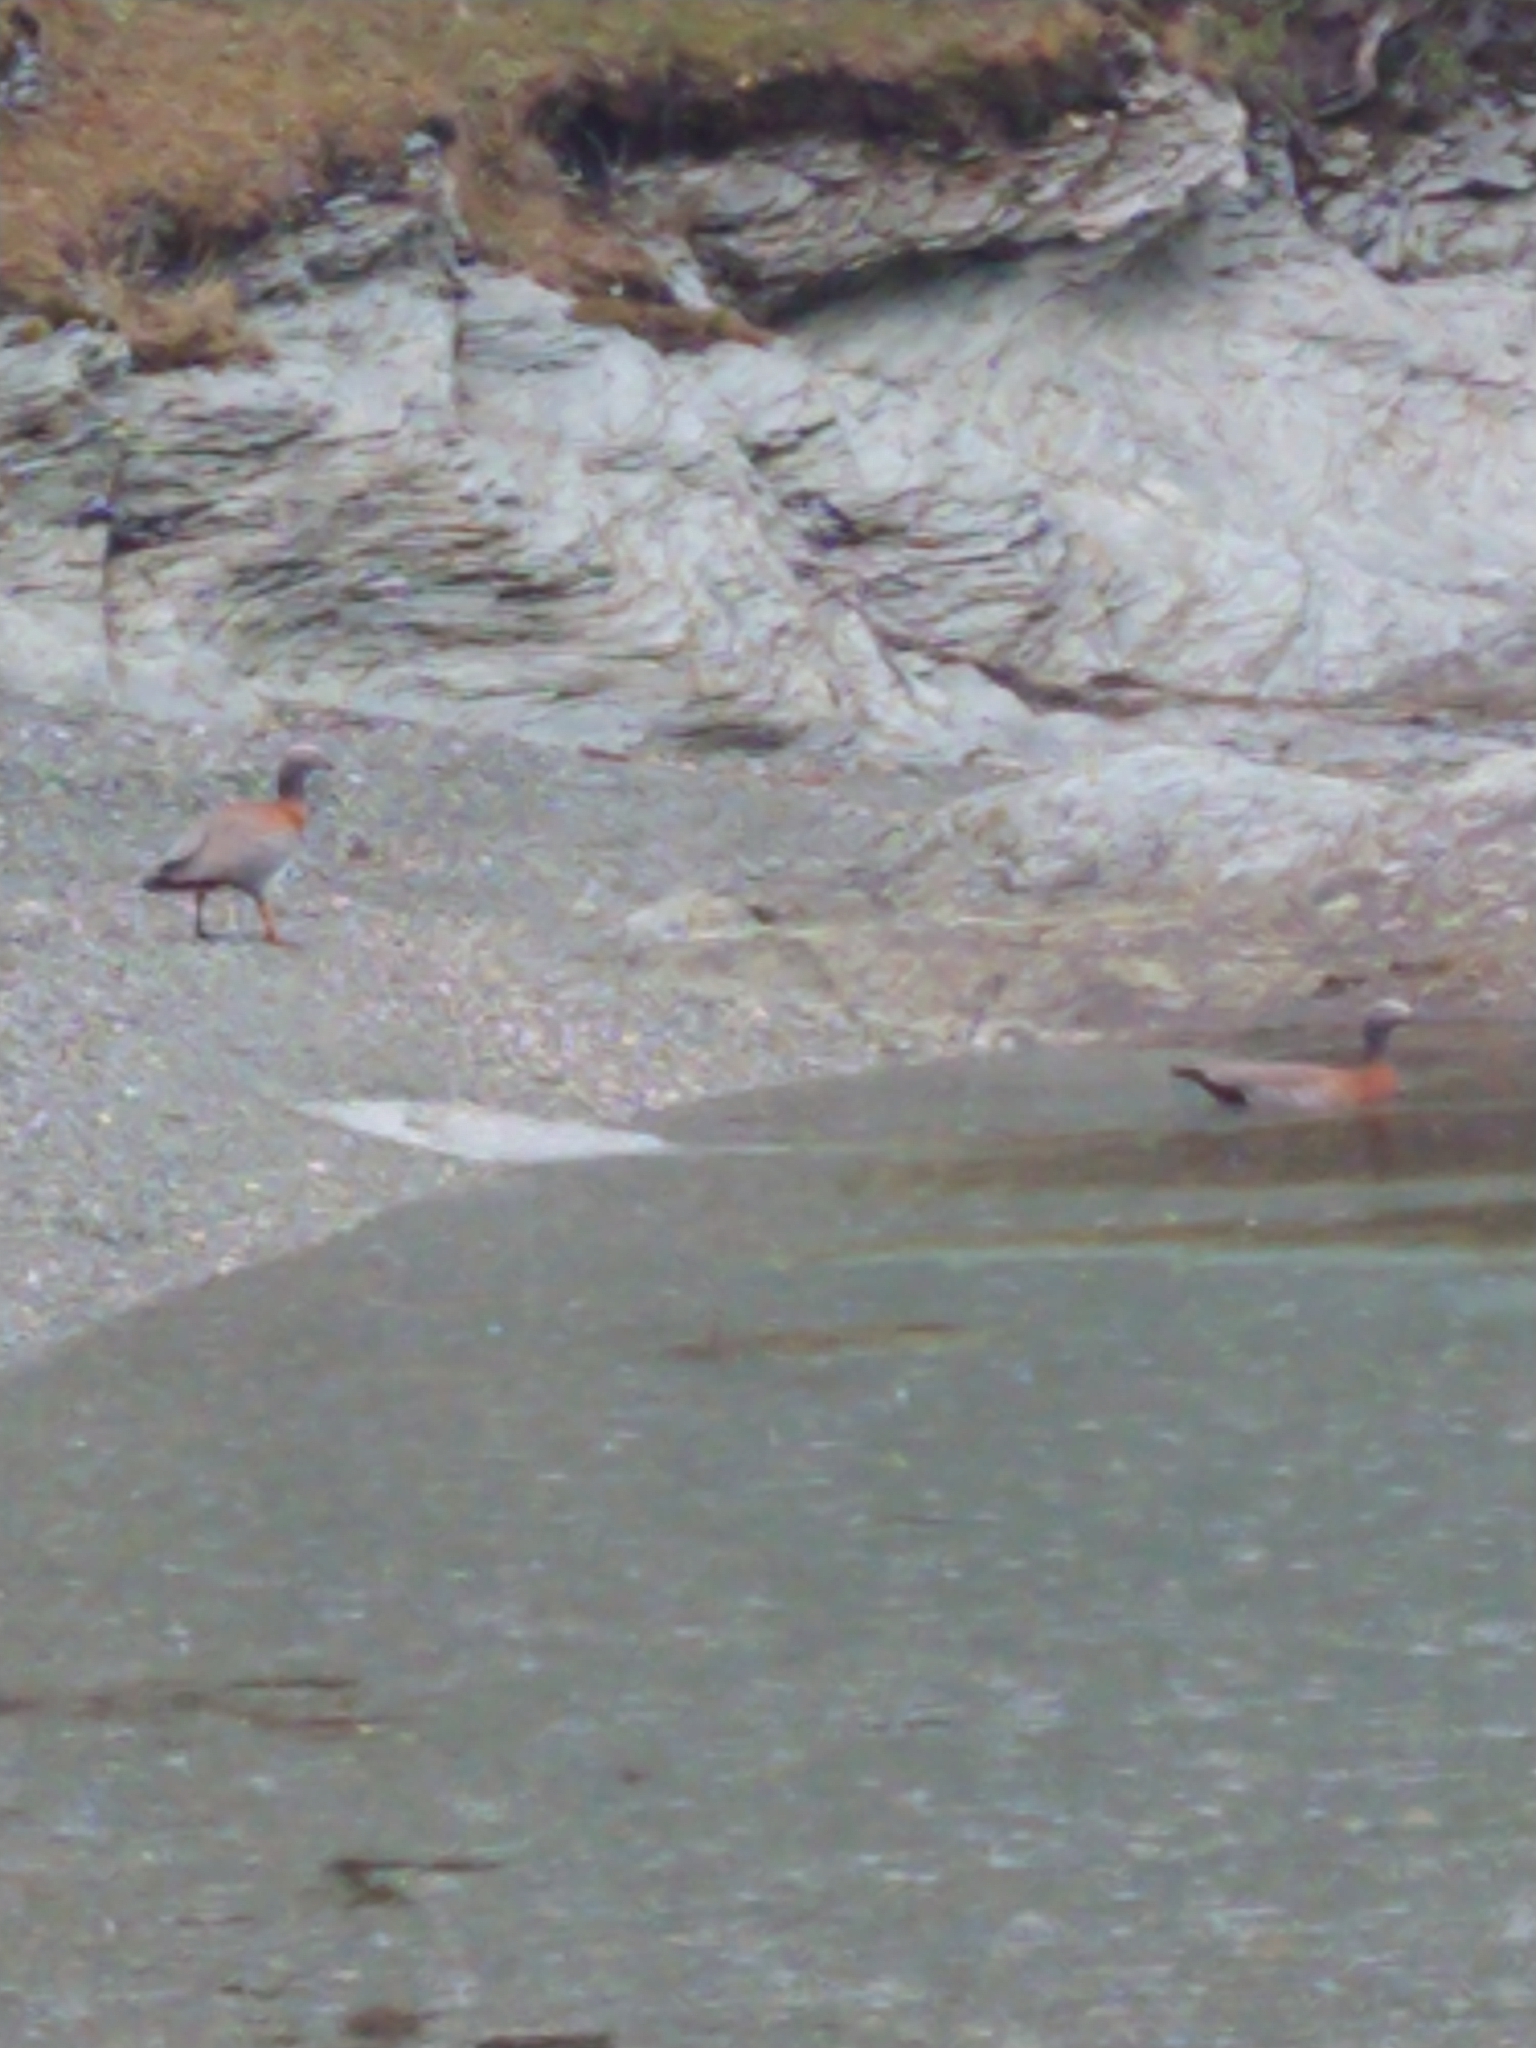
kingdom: Animalia
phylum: Chordata
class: Aves
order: Anseriformes
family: Anatidae
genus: Chloephaga
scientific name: Chloephaga poliocephala
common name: Ashy-headed goose
